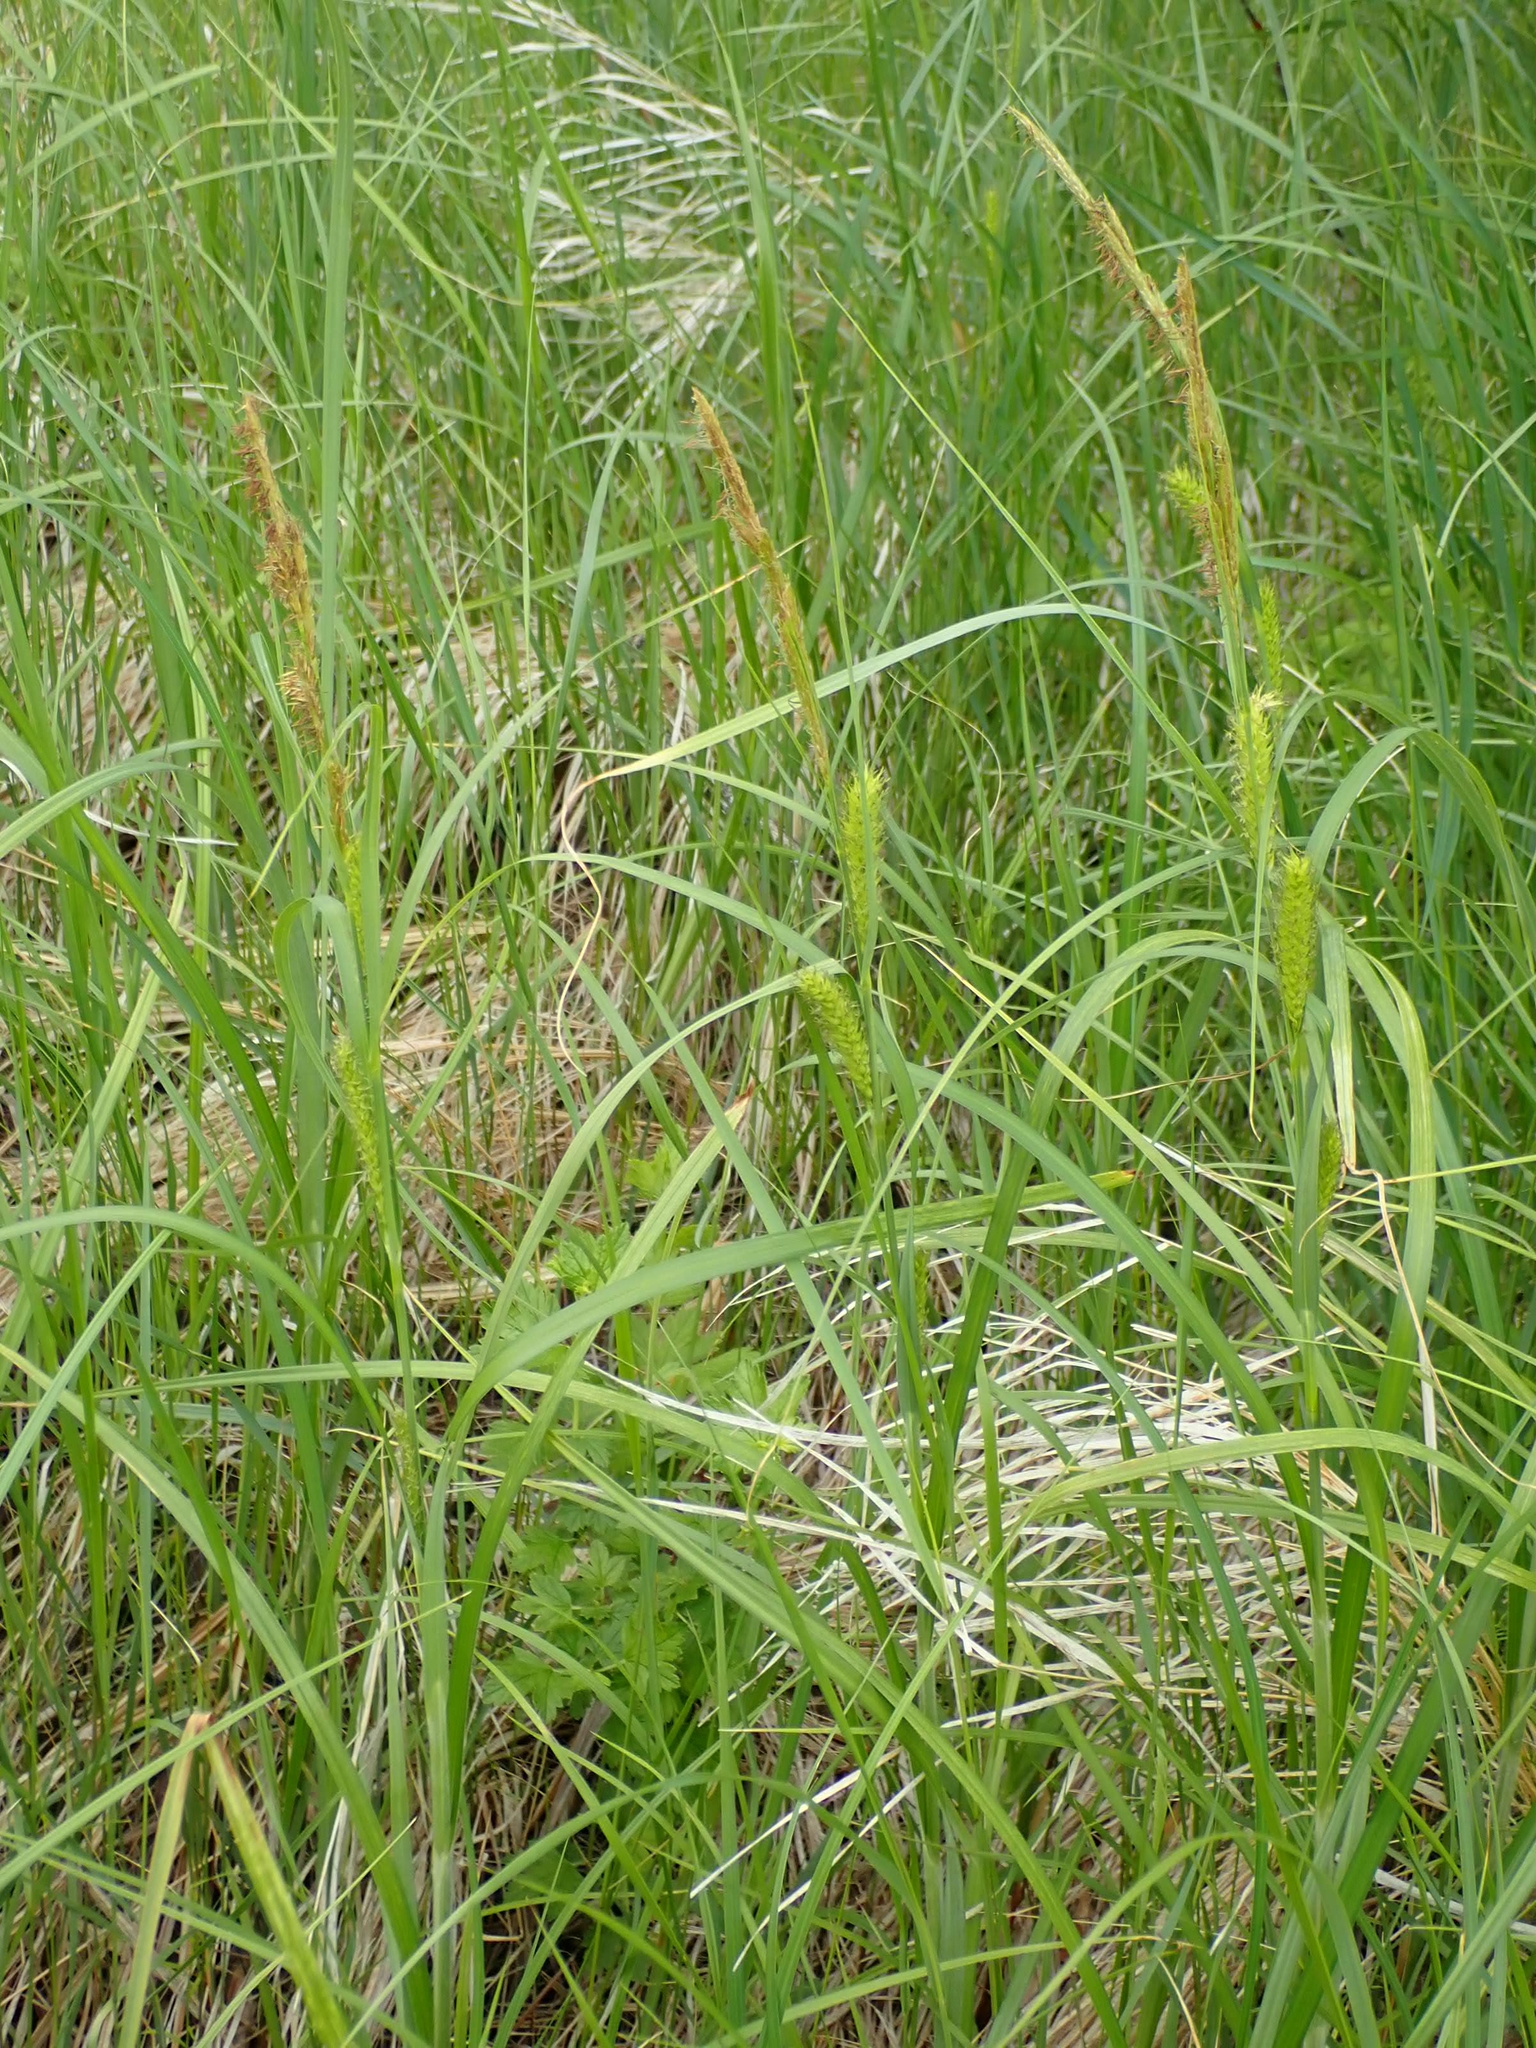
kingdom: Plantae
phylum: Tracheophyta
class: Liliopsida
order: Poales
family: Cyperaceae
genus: Carex
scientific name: Carex atherodes
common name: Wheat sedge
